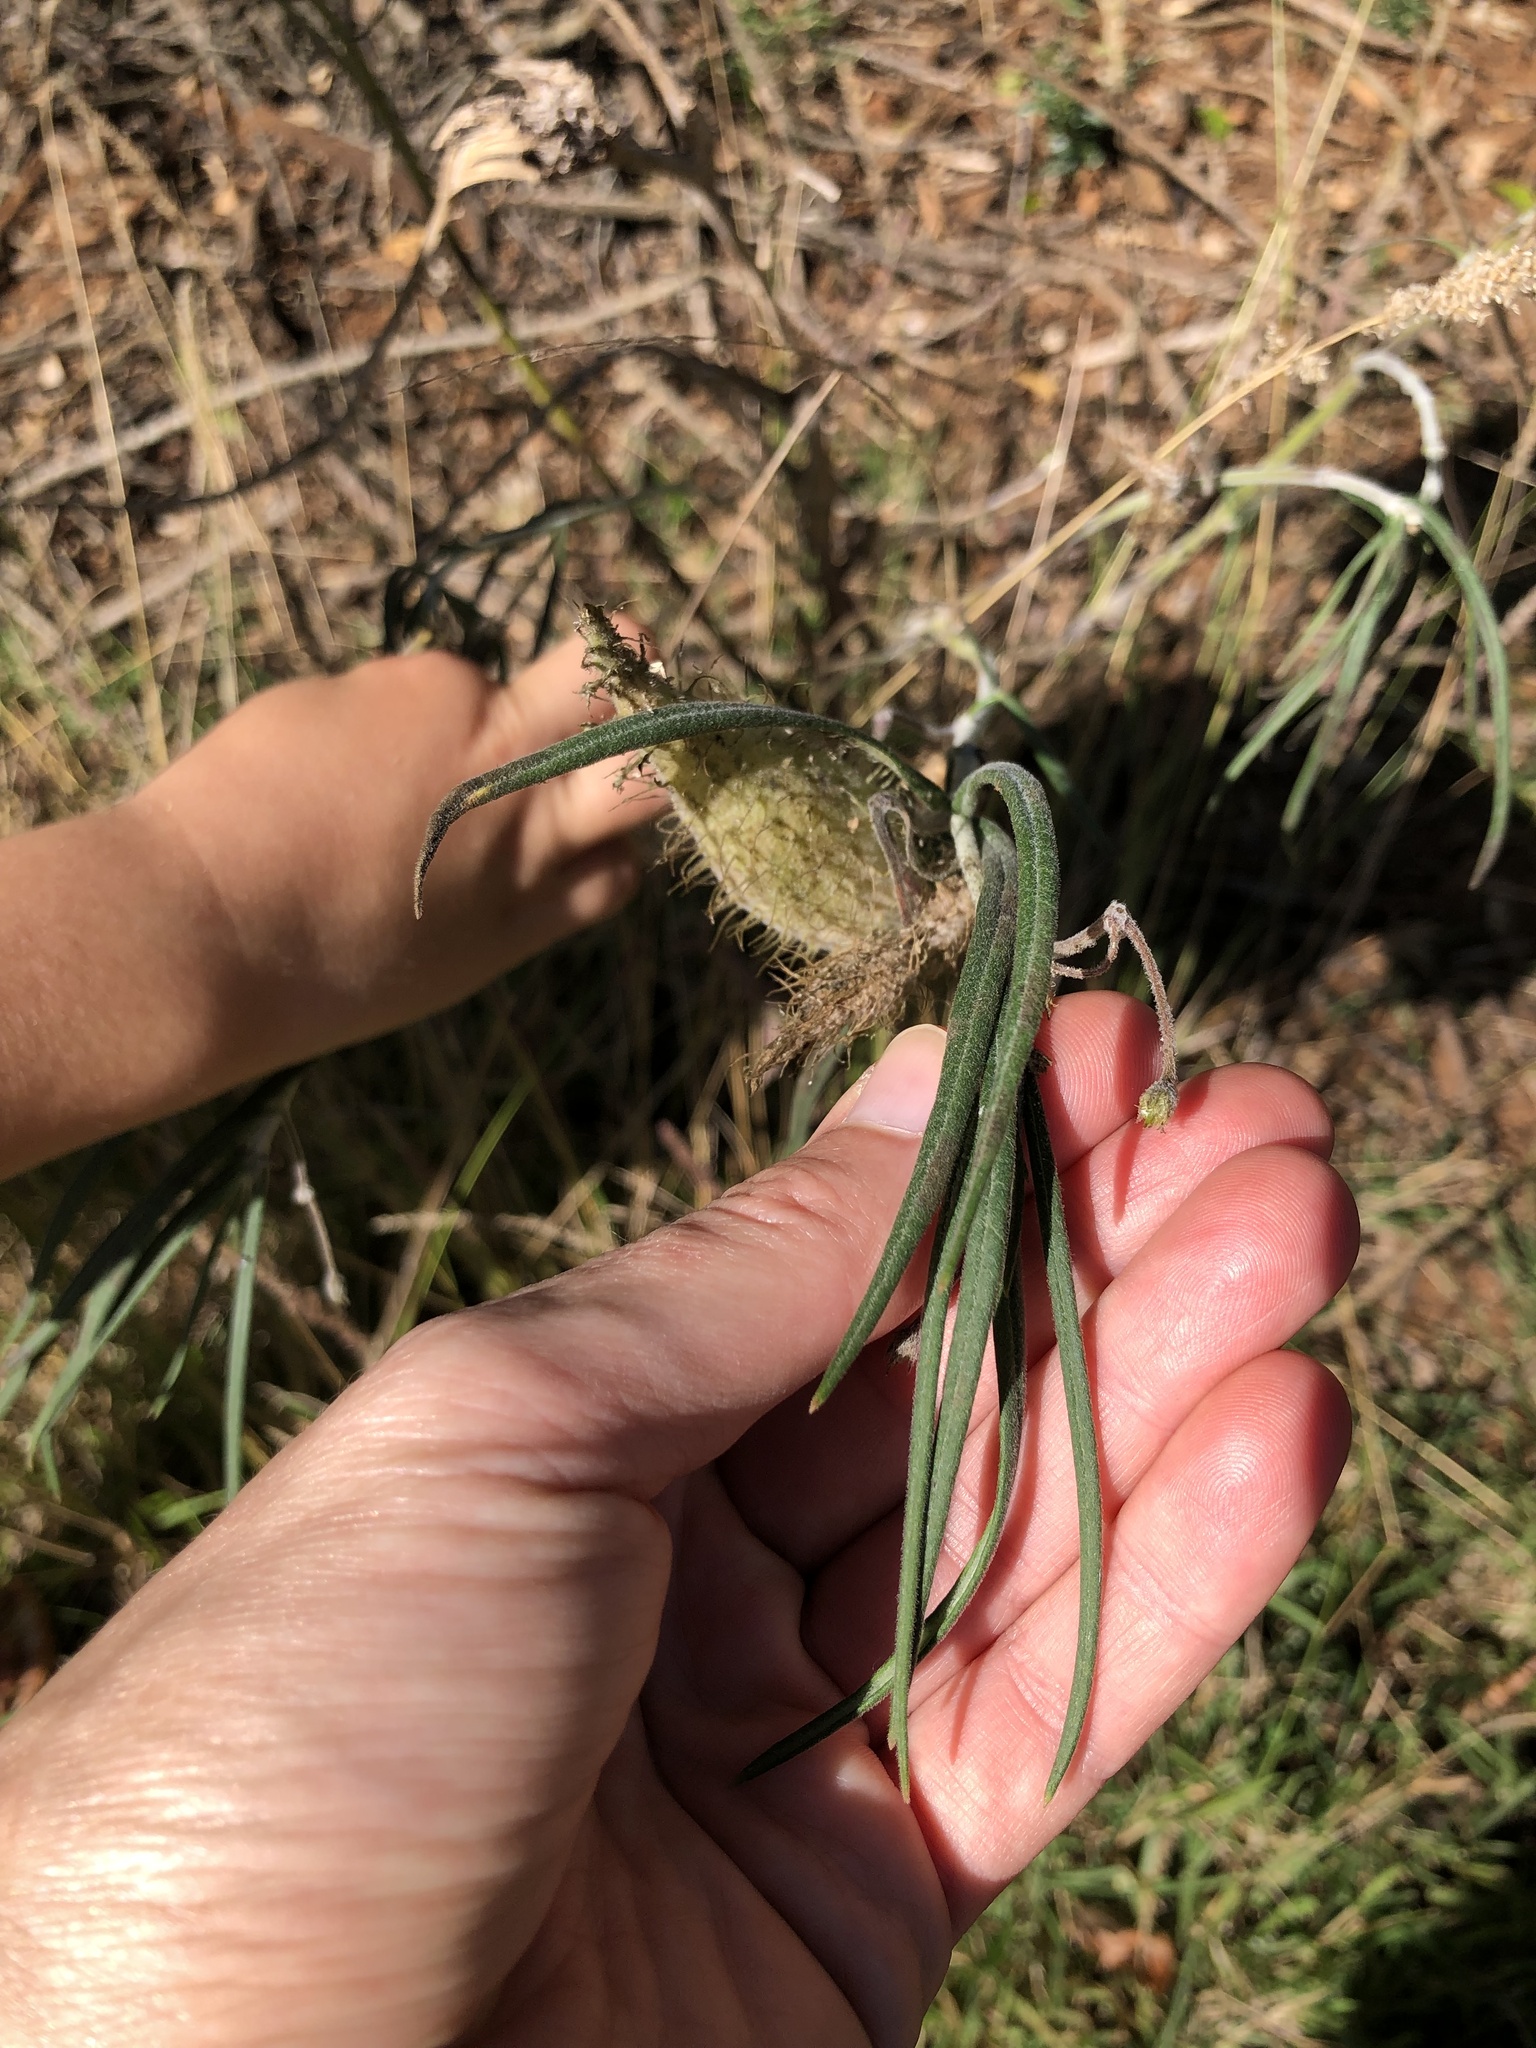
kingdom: Plantae
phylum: Tracheophyta
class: Magnoliopsida
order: Gentianales
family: Apocynaceae
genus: Gomphocarpus
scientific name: Gomphocarpus fruticosus
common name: Milkweed
